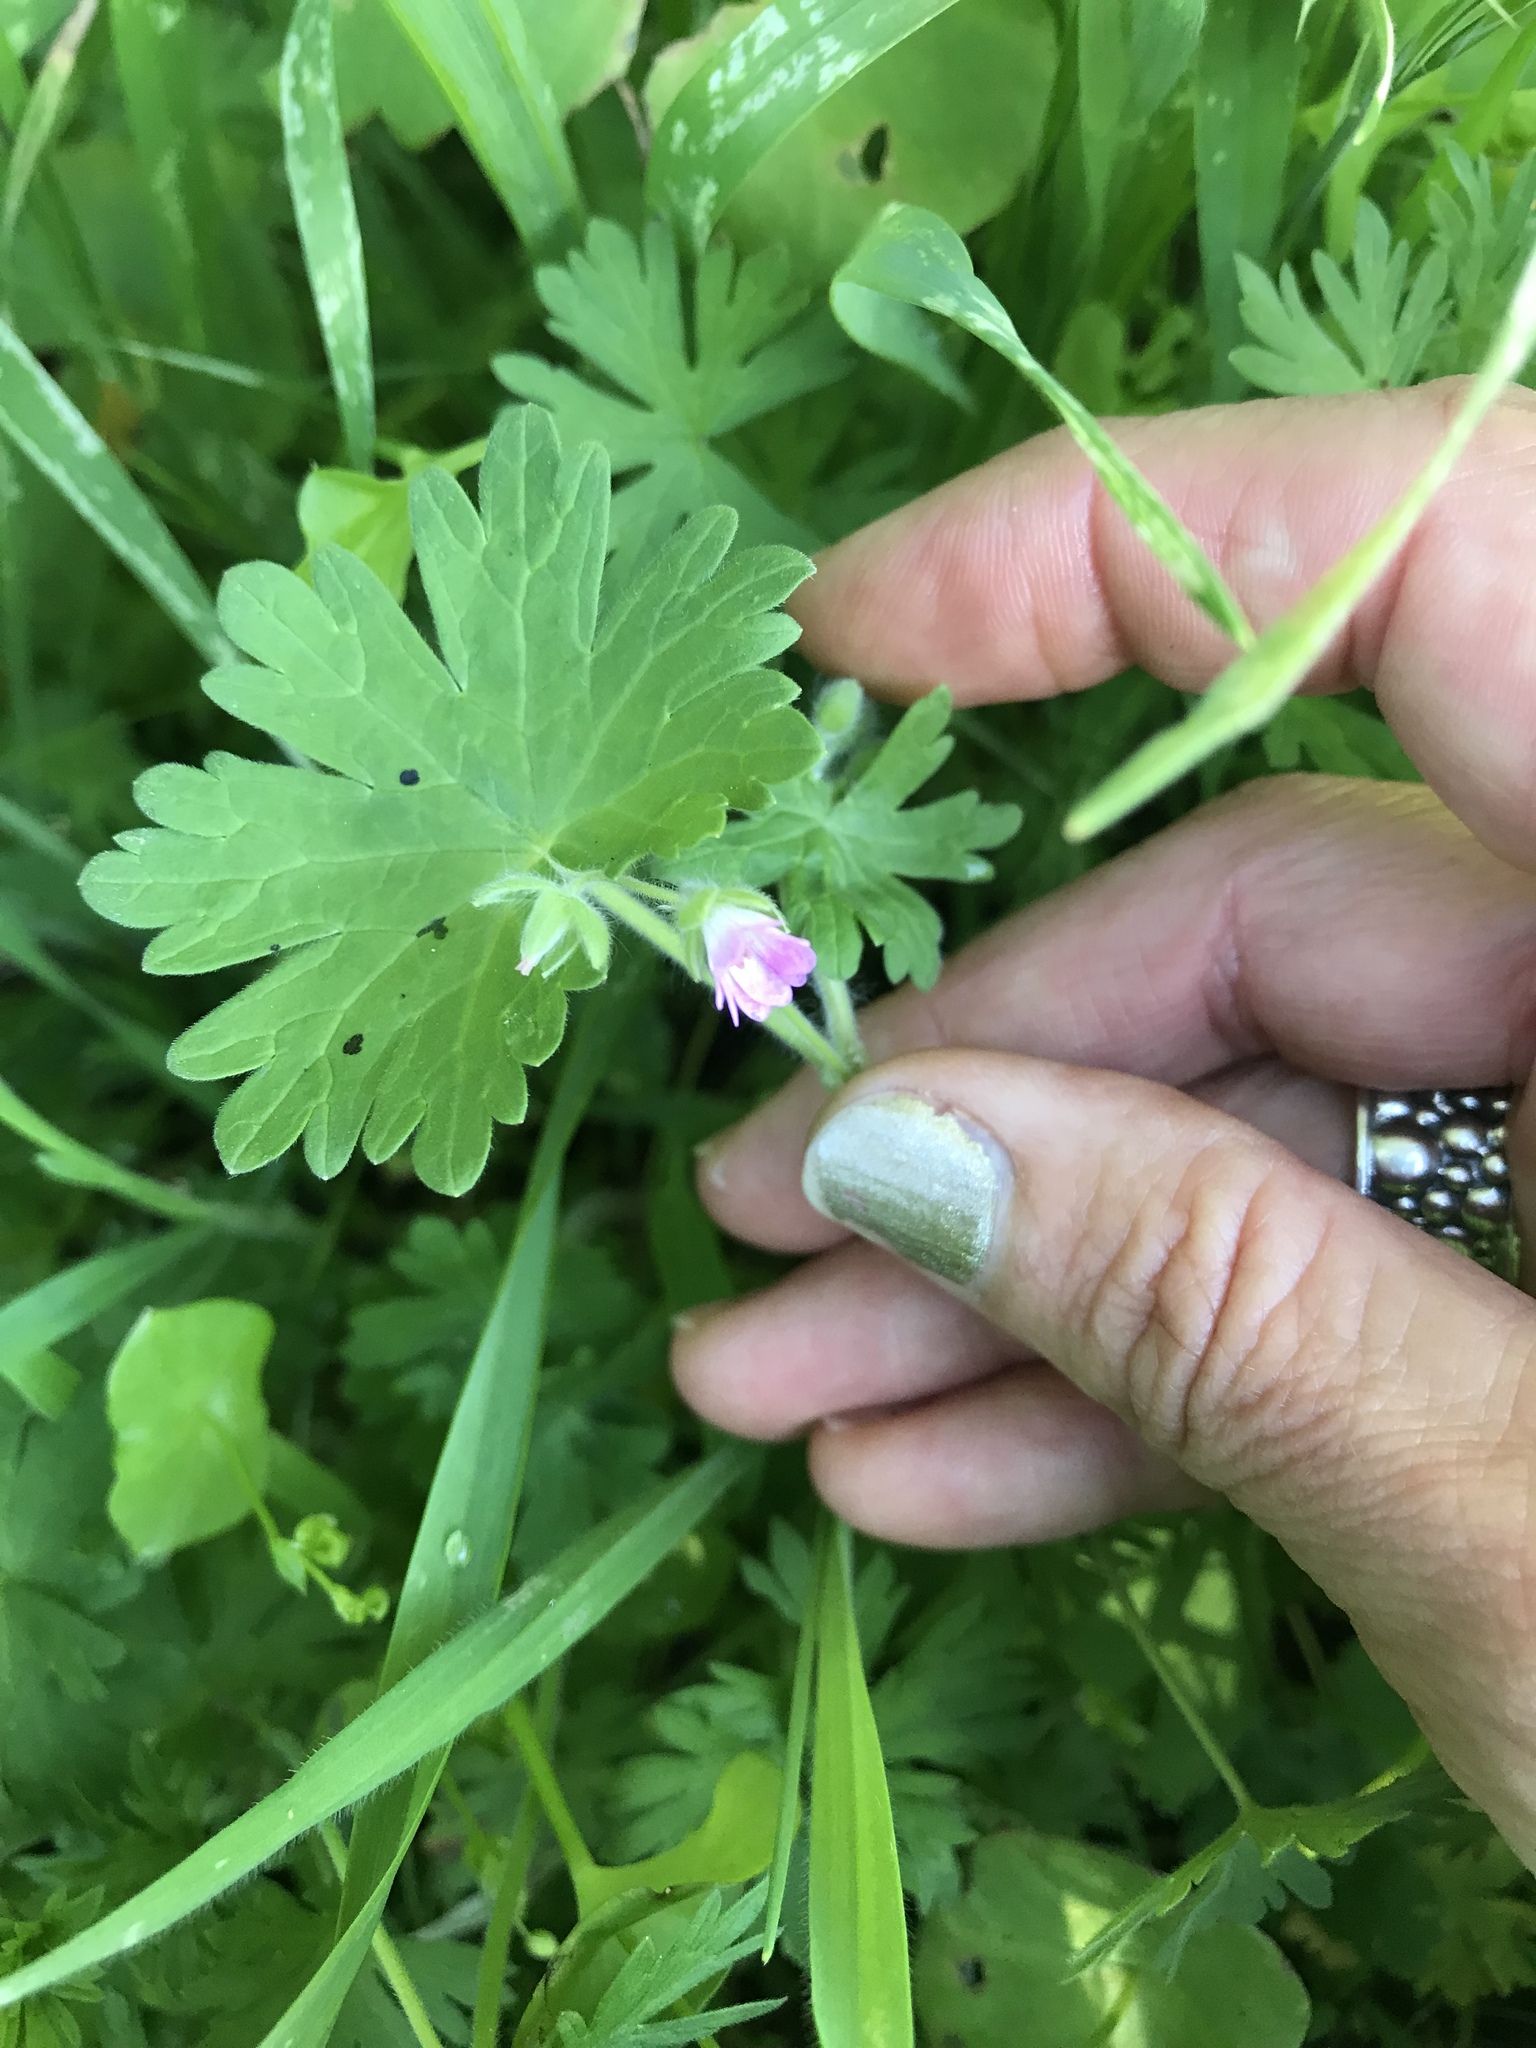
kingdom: Plantae
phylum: Tracheophyta
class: Magnoliopsida
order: Geraniales
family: Geraniaceae
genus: Geranium
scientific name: Geranium molle
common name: Dove's-foot crane's-bill
